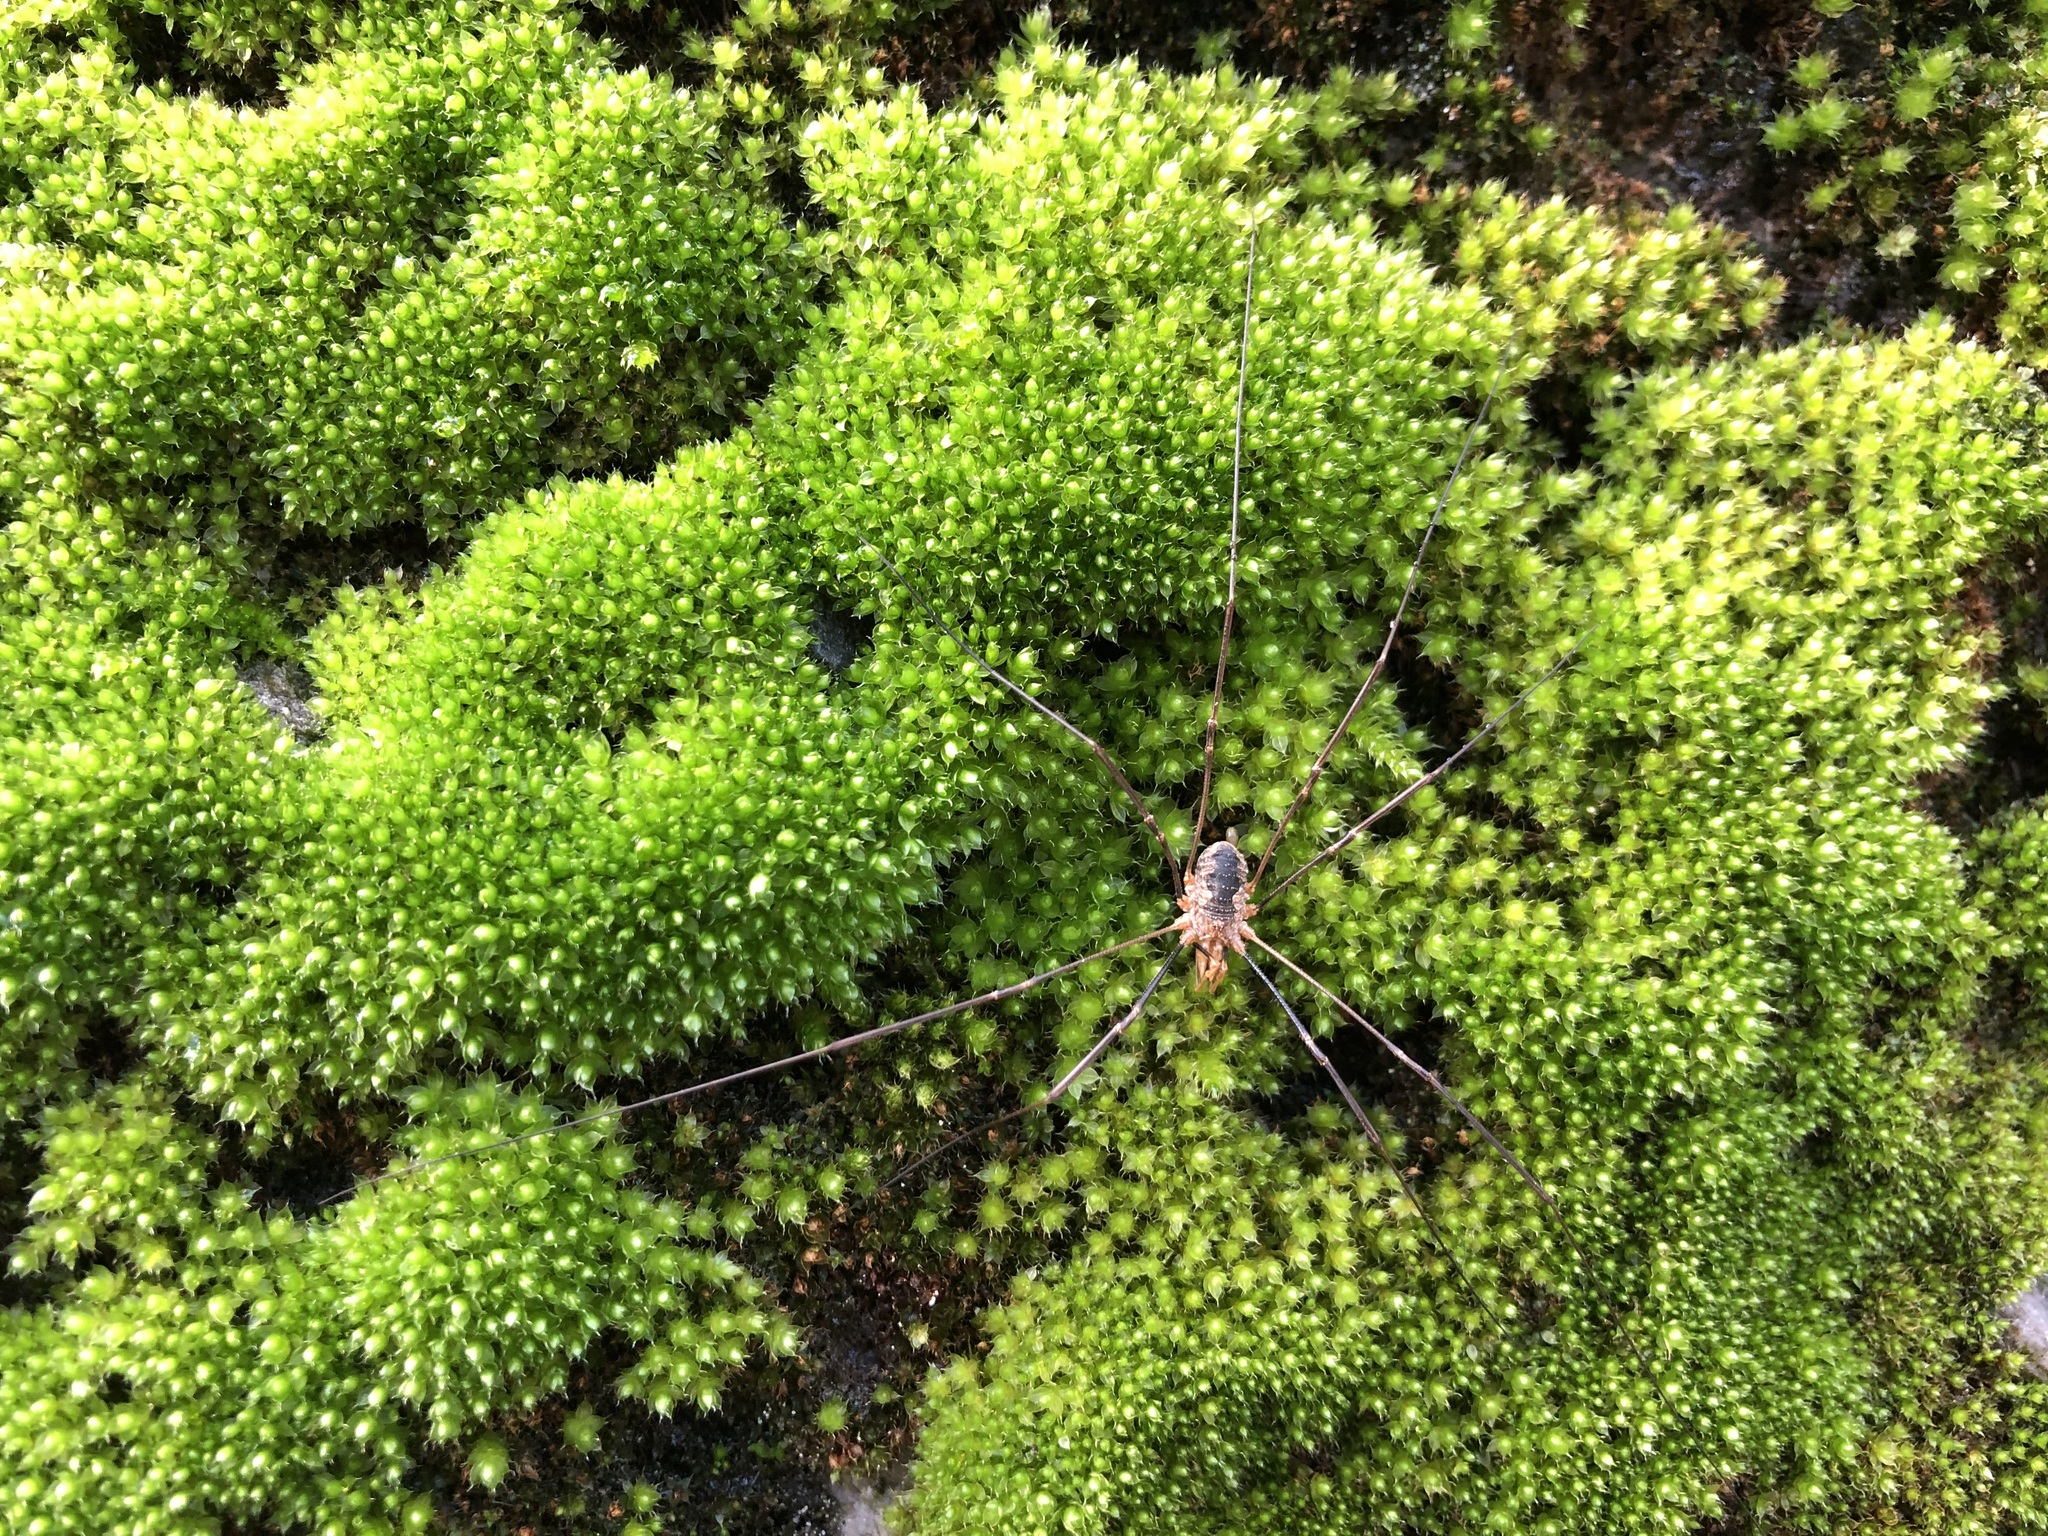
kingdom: Animalia
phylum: Arthropoda
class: Arachnida
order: Opiliones
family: Phalangiidae
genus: Phalangium
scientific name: Phalangium opilio
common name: Daddy longleg
